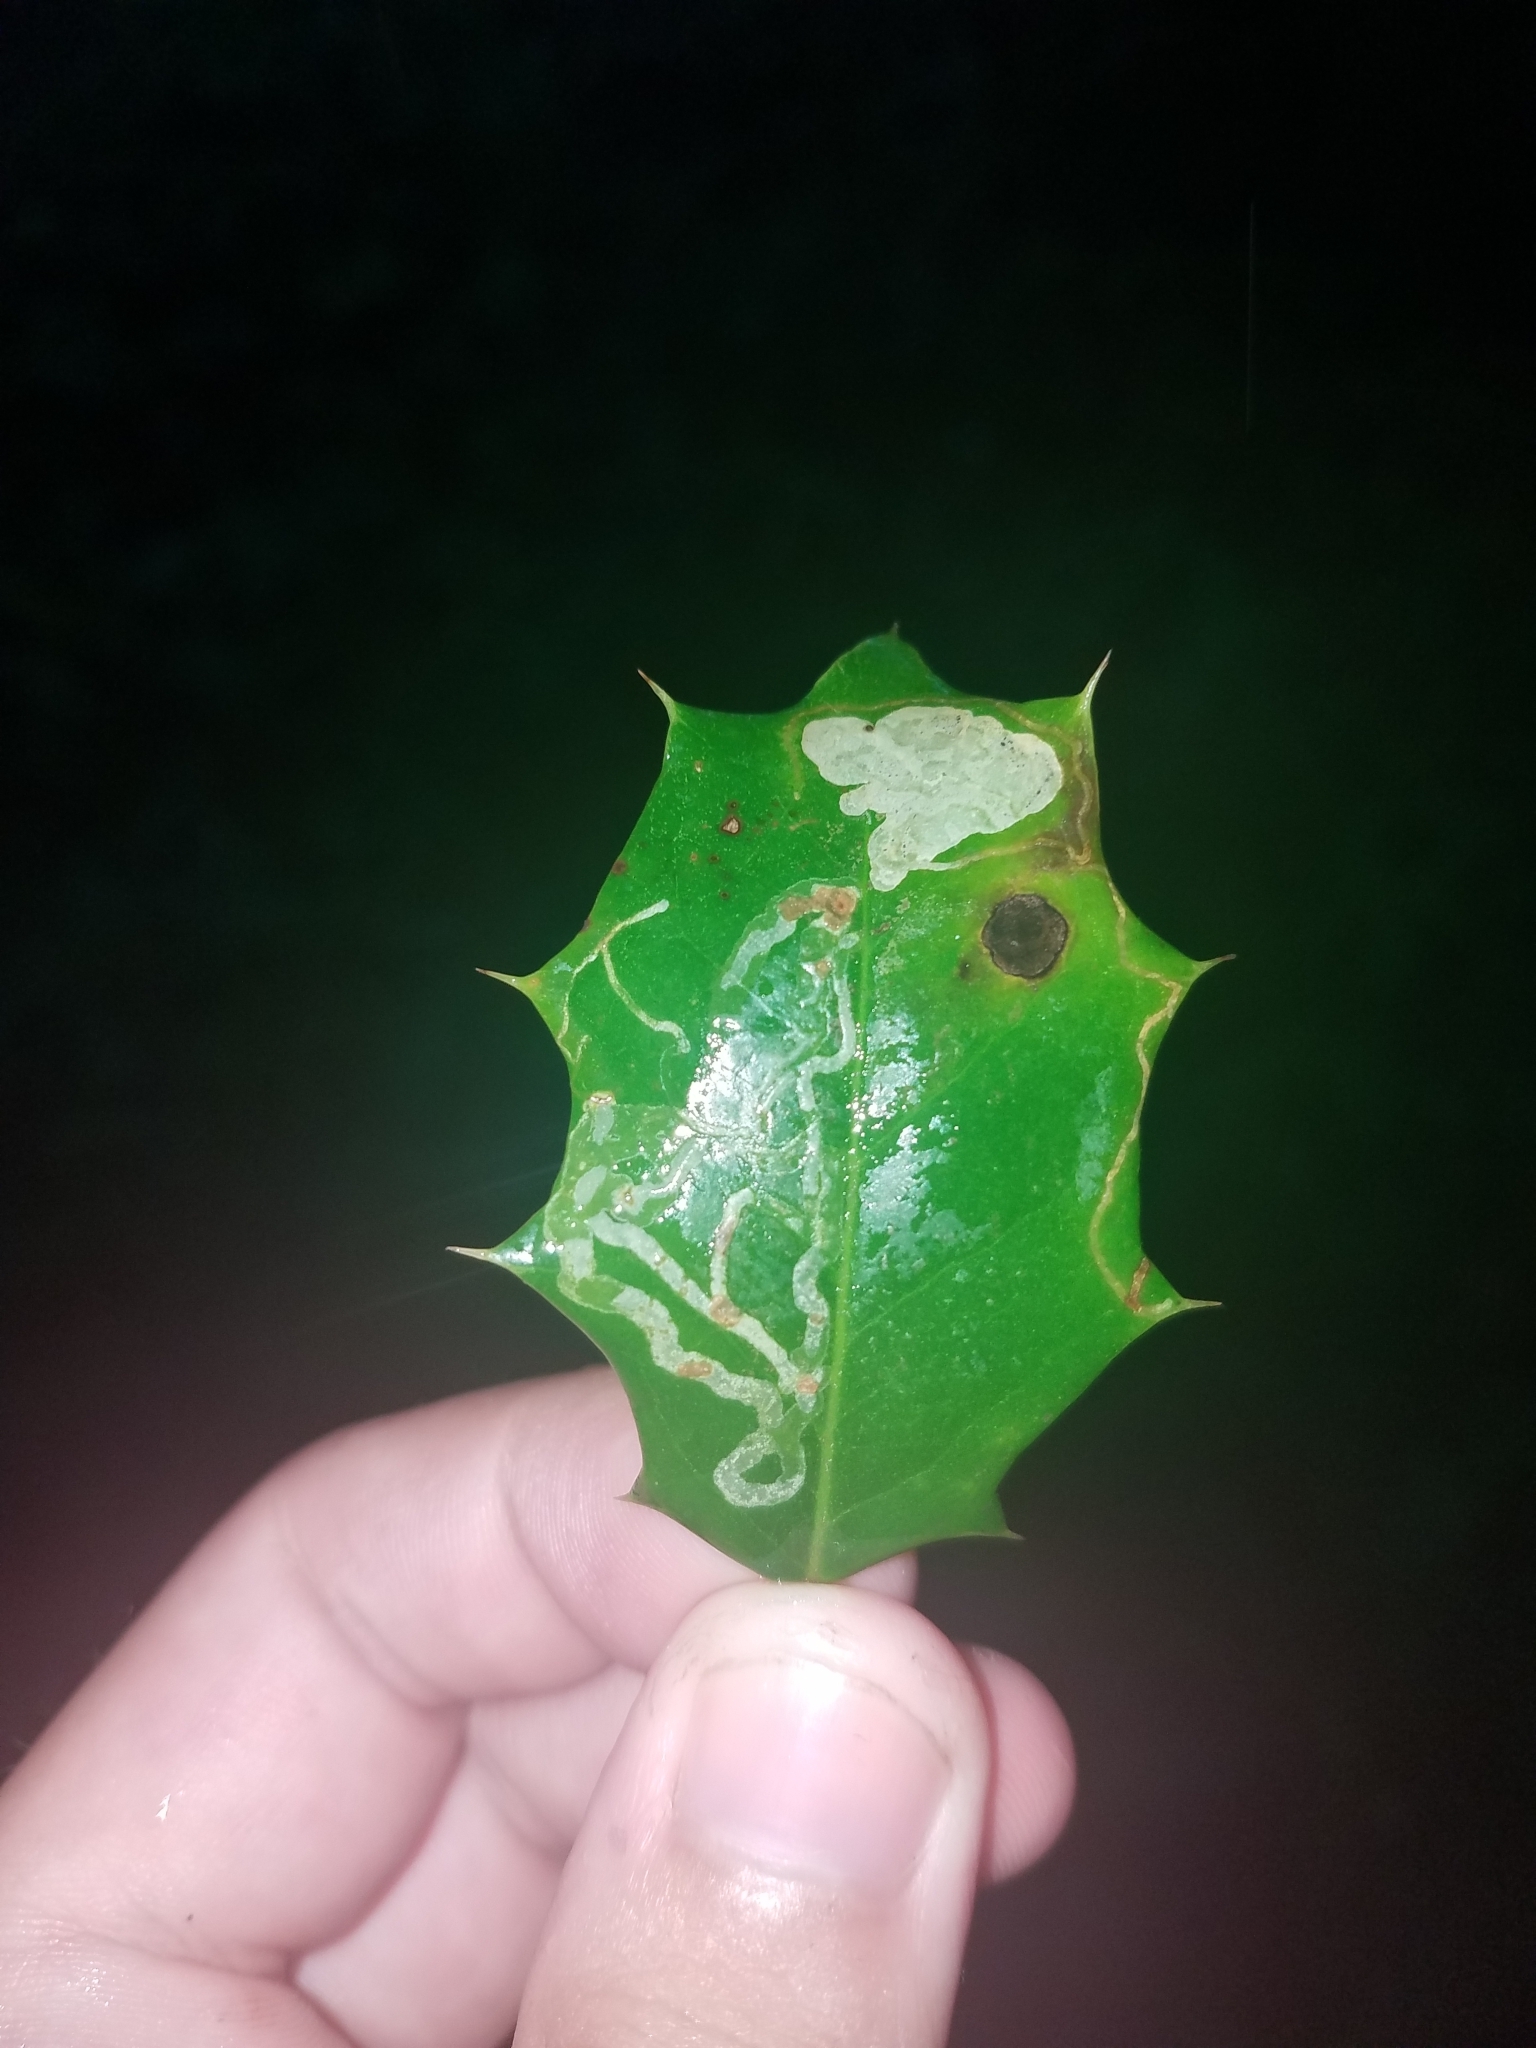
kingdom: Animalia
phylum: Arthropoda
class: Insecta
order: Diptera
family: Agromyzidae
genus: Phytomyza
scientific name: Phytomyza opacae
